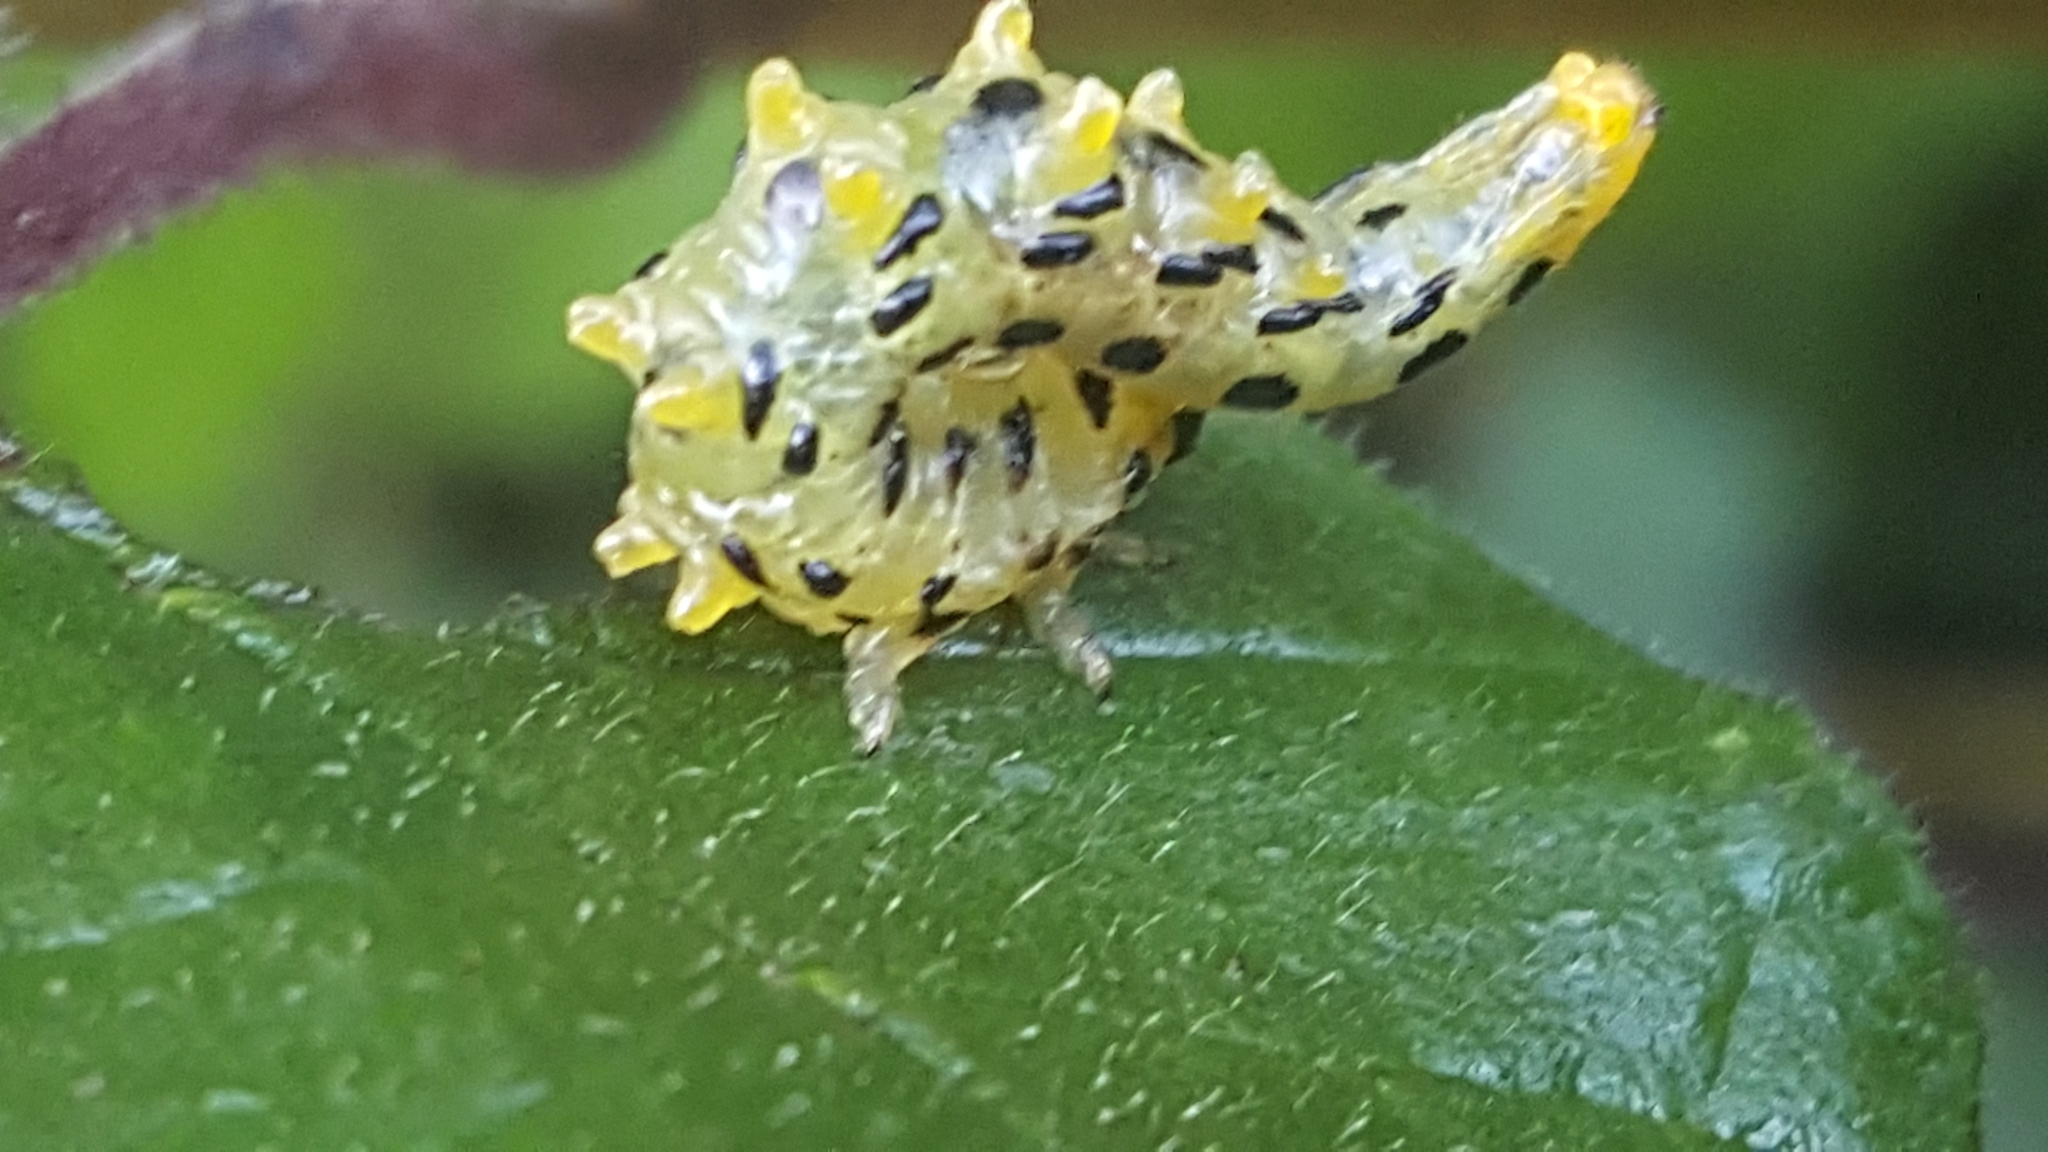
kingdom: Animalia
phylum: Arthropoda
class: Insecta
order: Hymenoptera
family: Tenthredinidae
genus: Craesus
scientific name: Craesus septentrionalis
